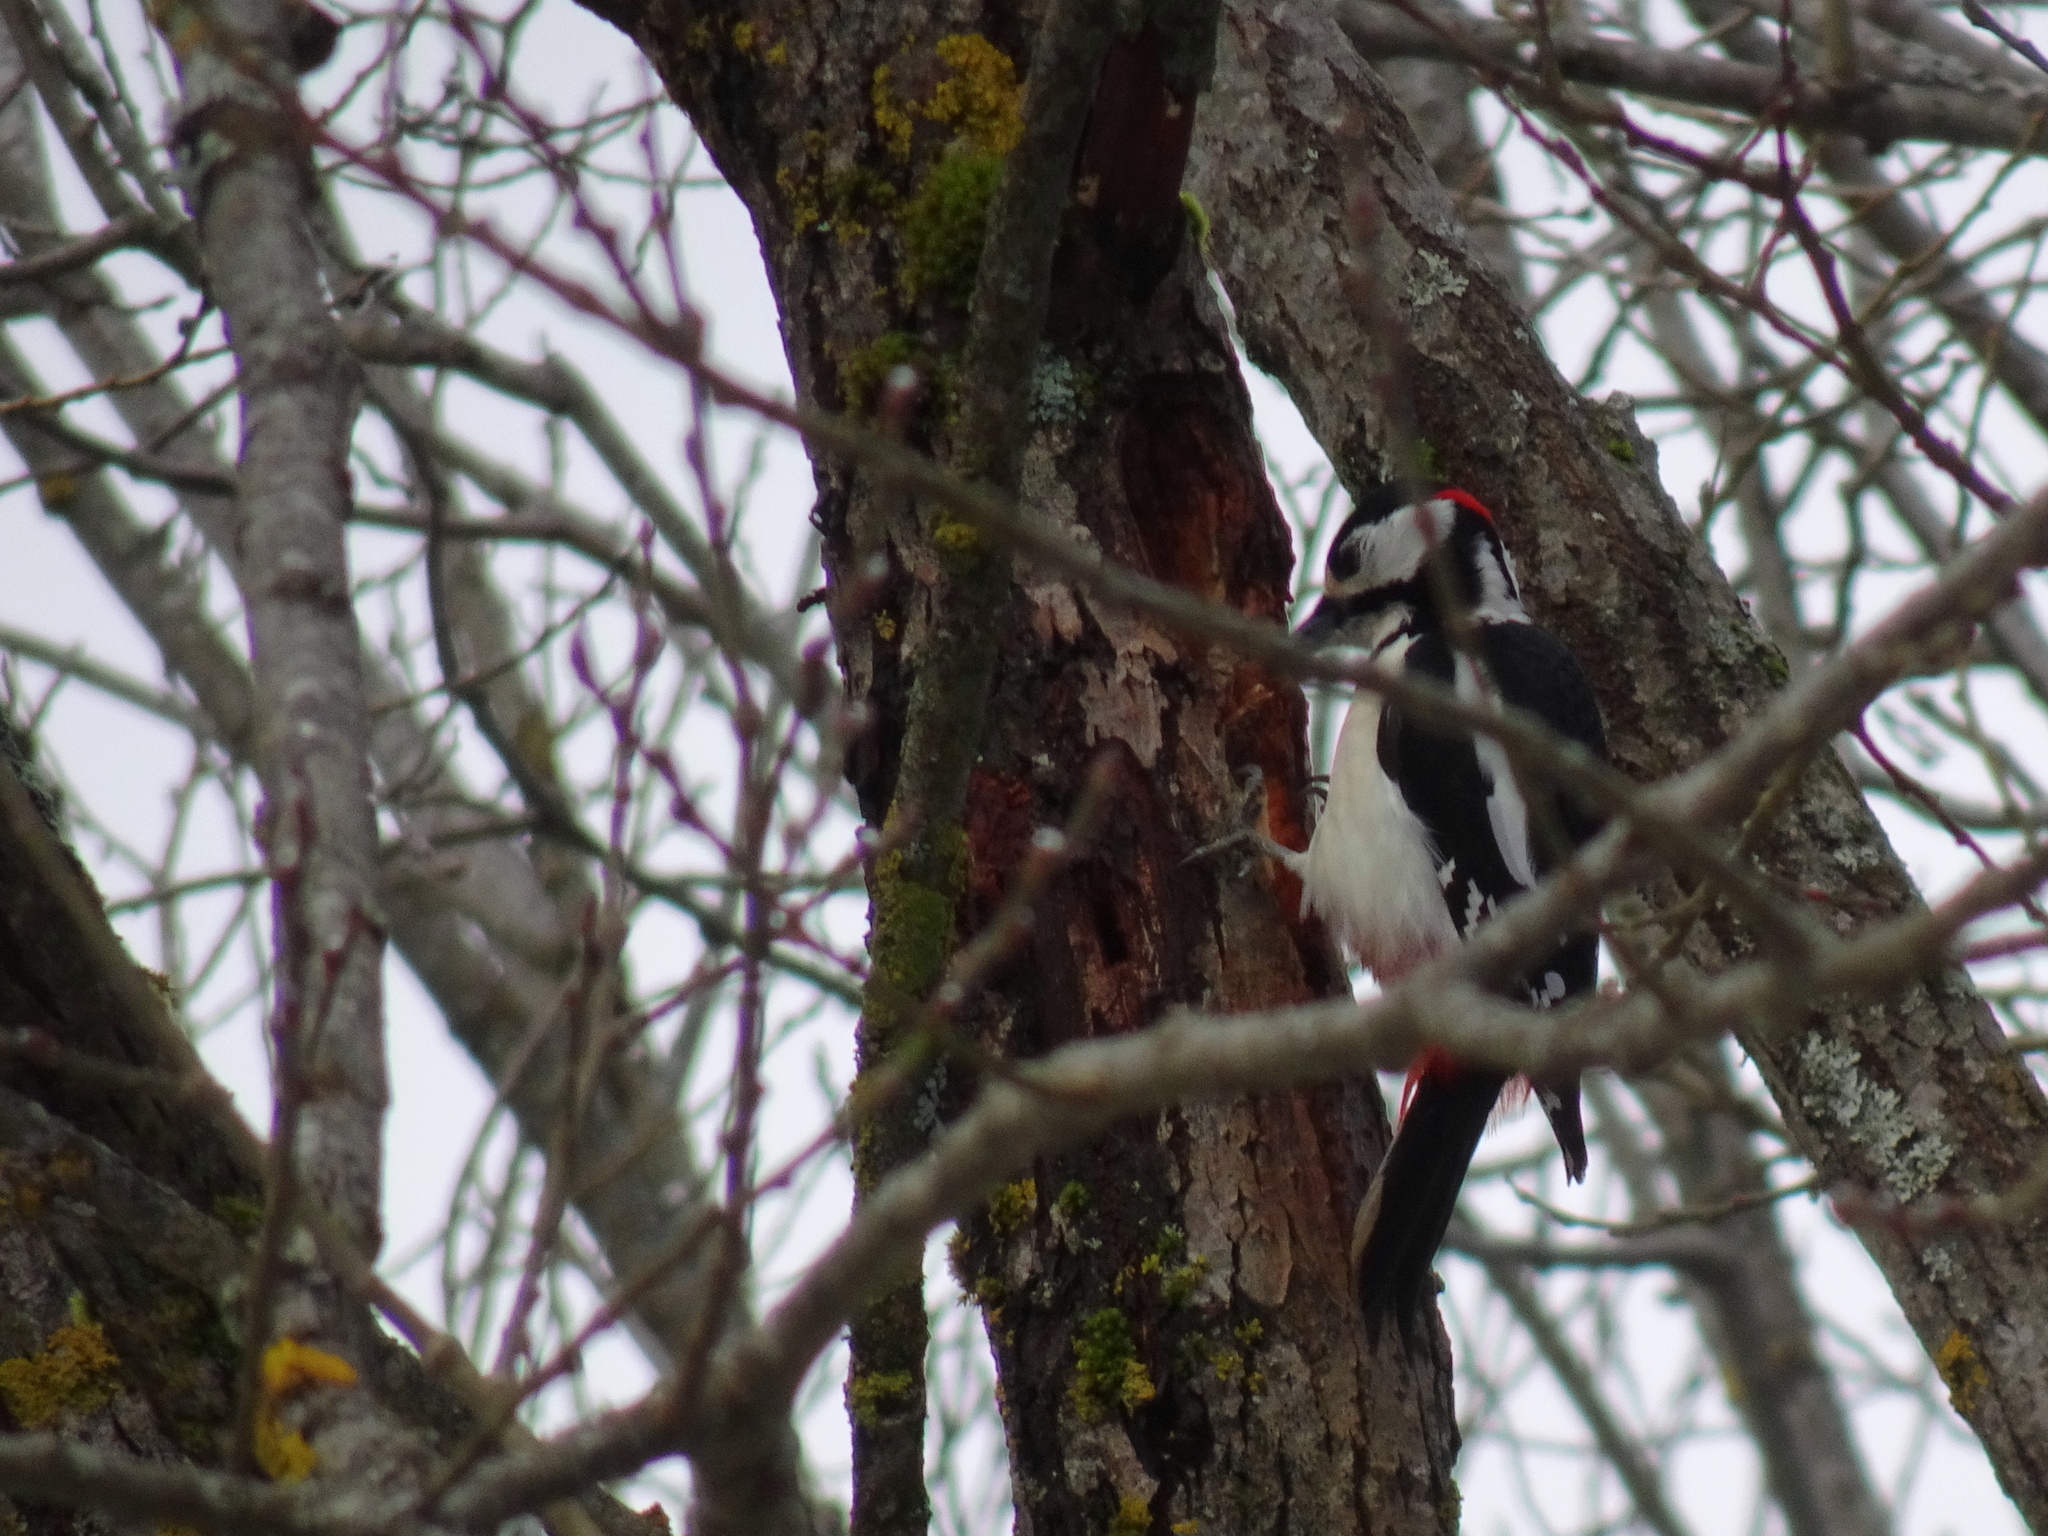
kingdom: Animalia
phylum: Chordata
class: Aves
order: Piciformes
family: Picidae
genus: Dendrocopos
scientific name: Dendrocopos major
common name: Great spotted woodpecker
